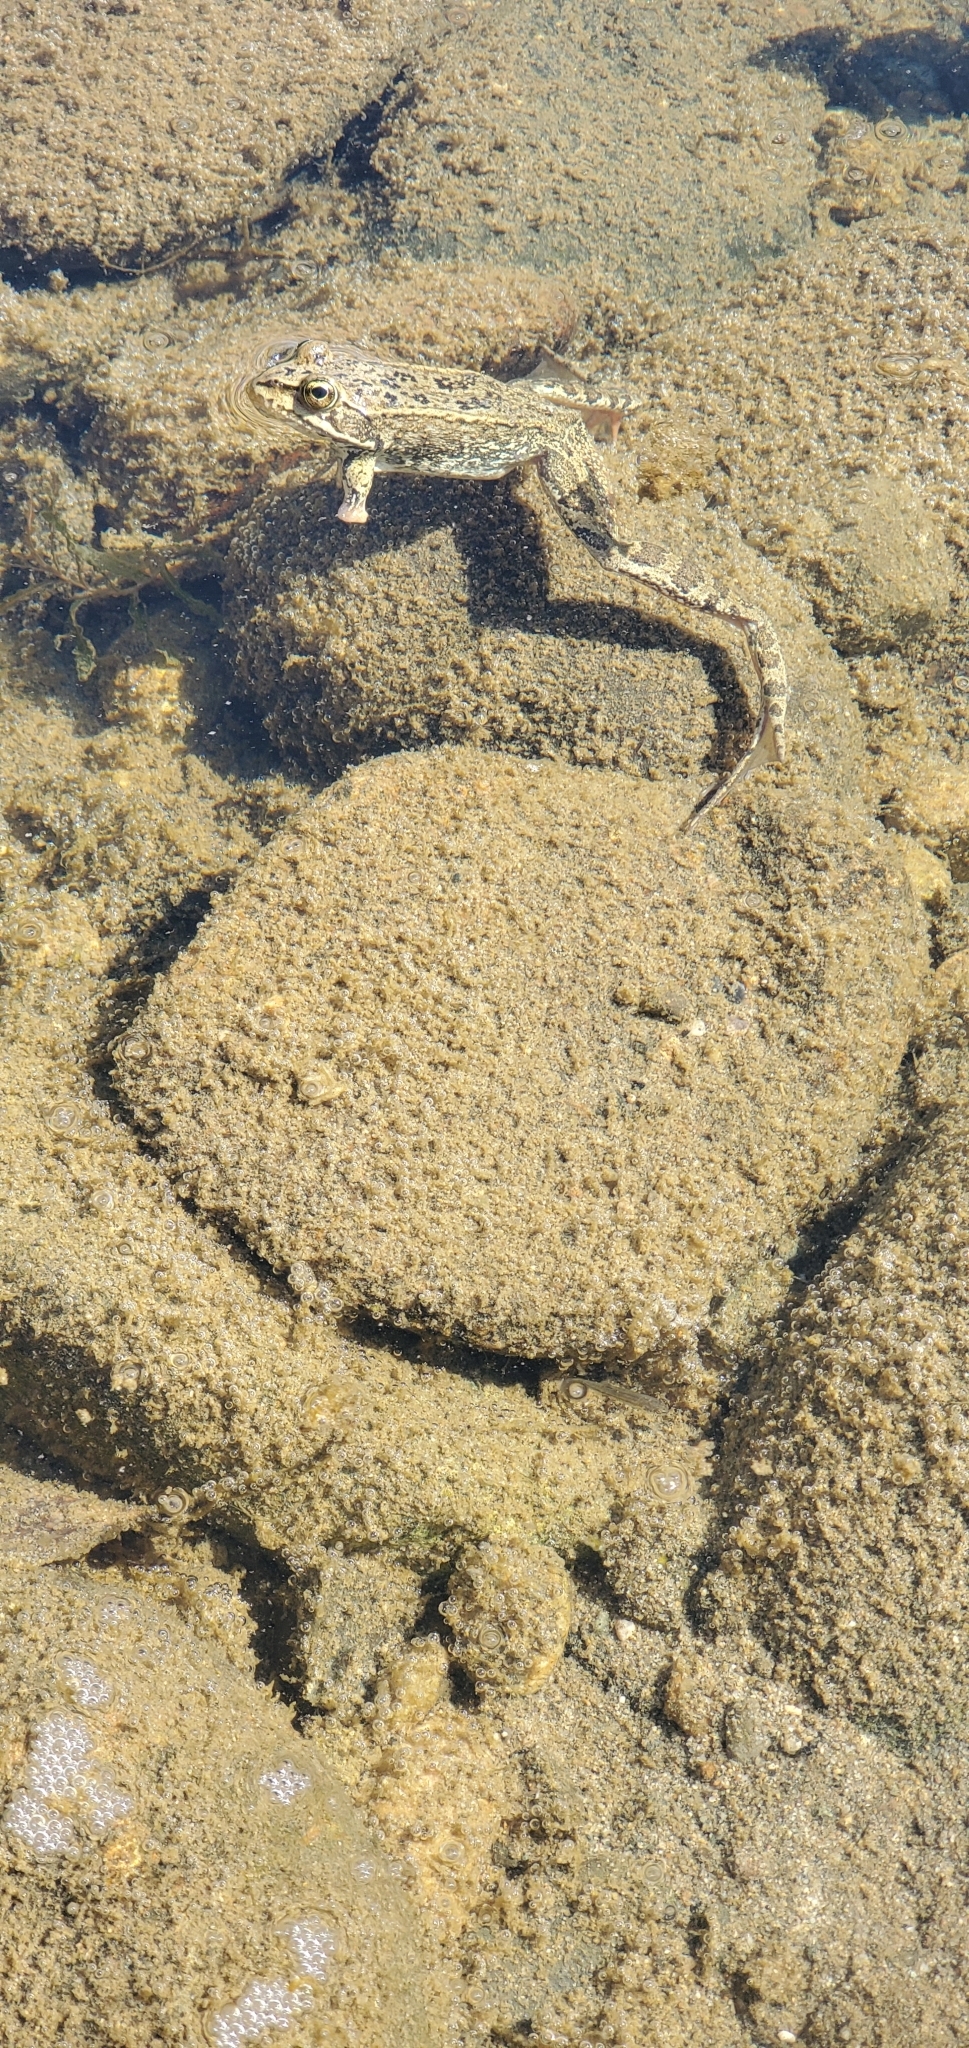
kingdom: Animalia
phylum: Chordata
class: Amphibia
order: Anura
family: Ranidae
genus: Rana
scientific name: Rana luteiventris
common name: Columbia spotted frog
